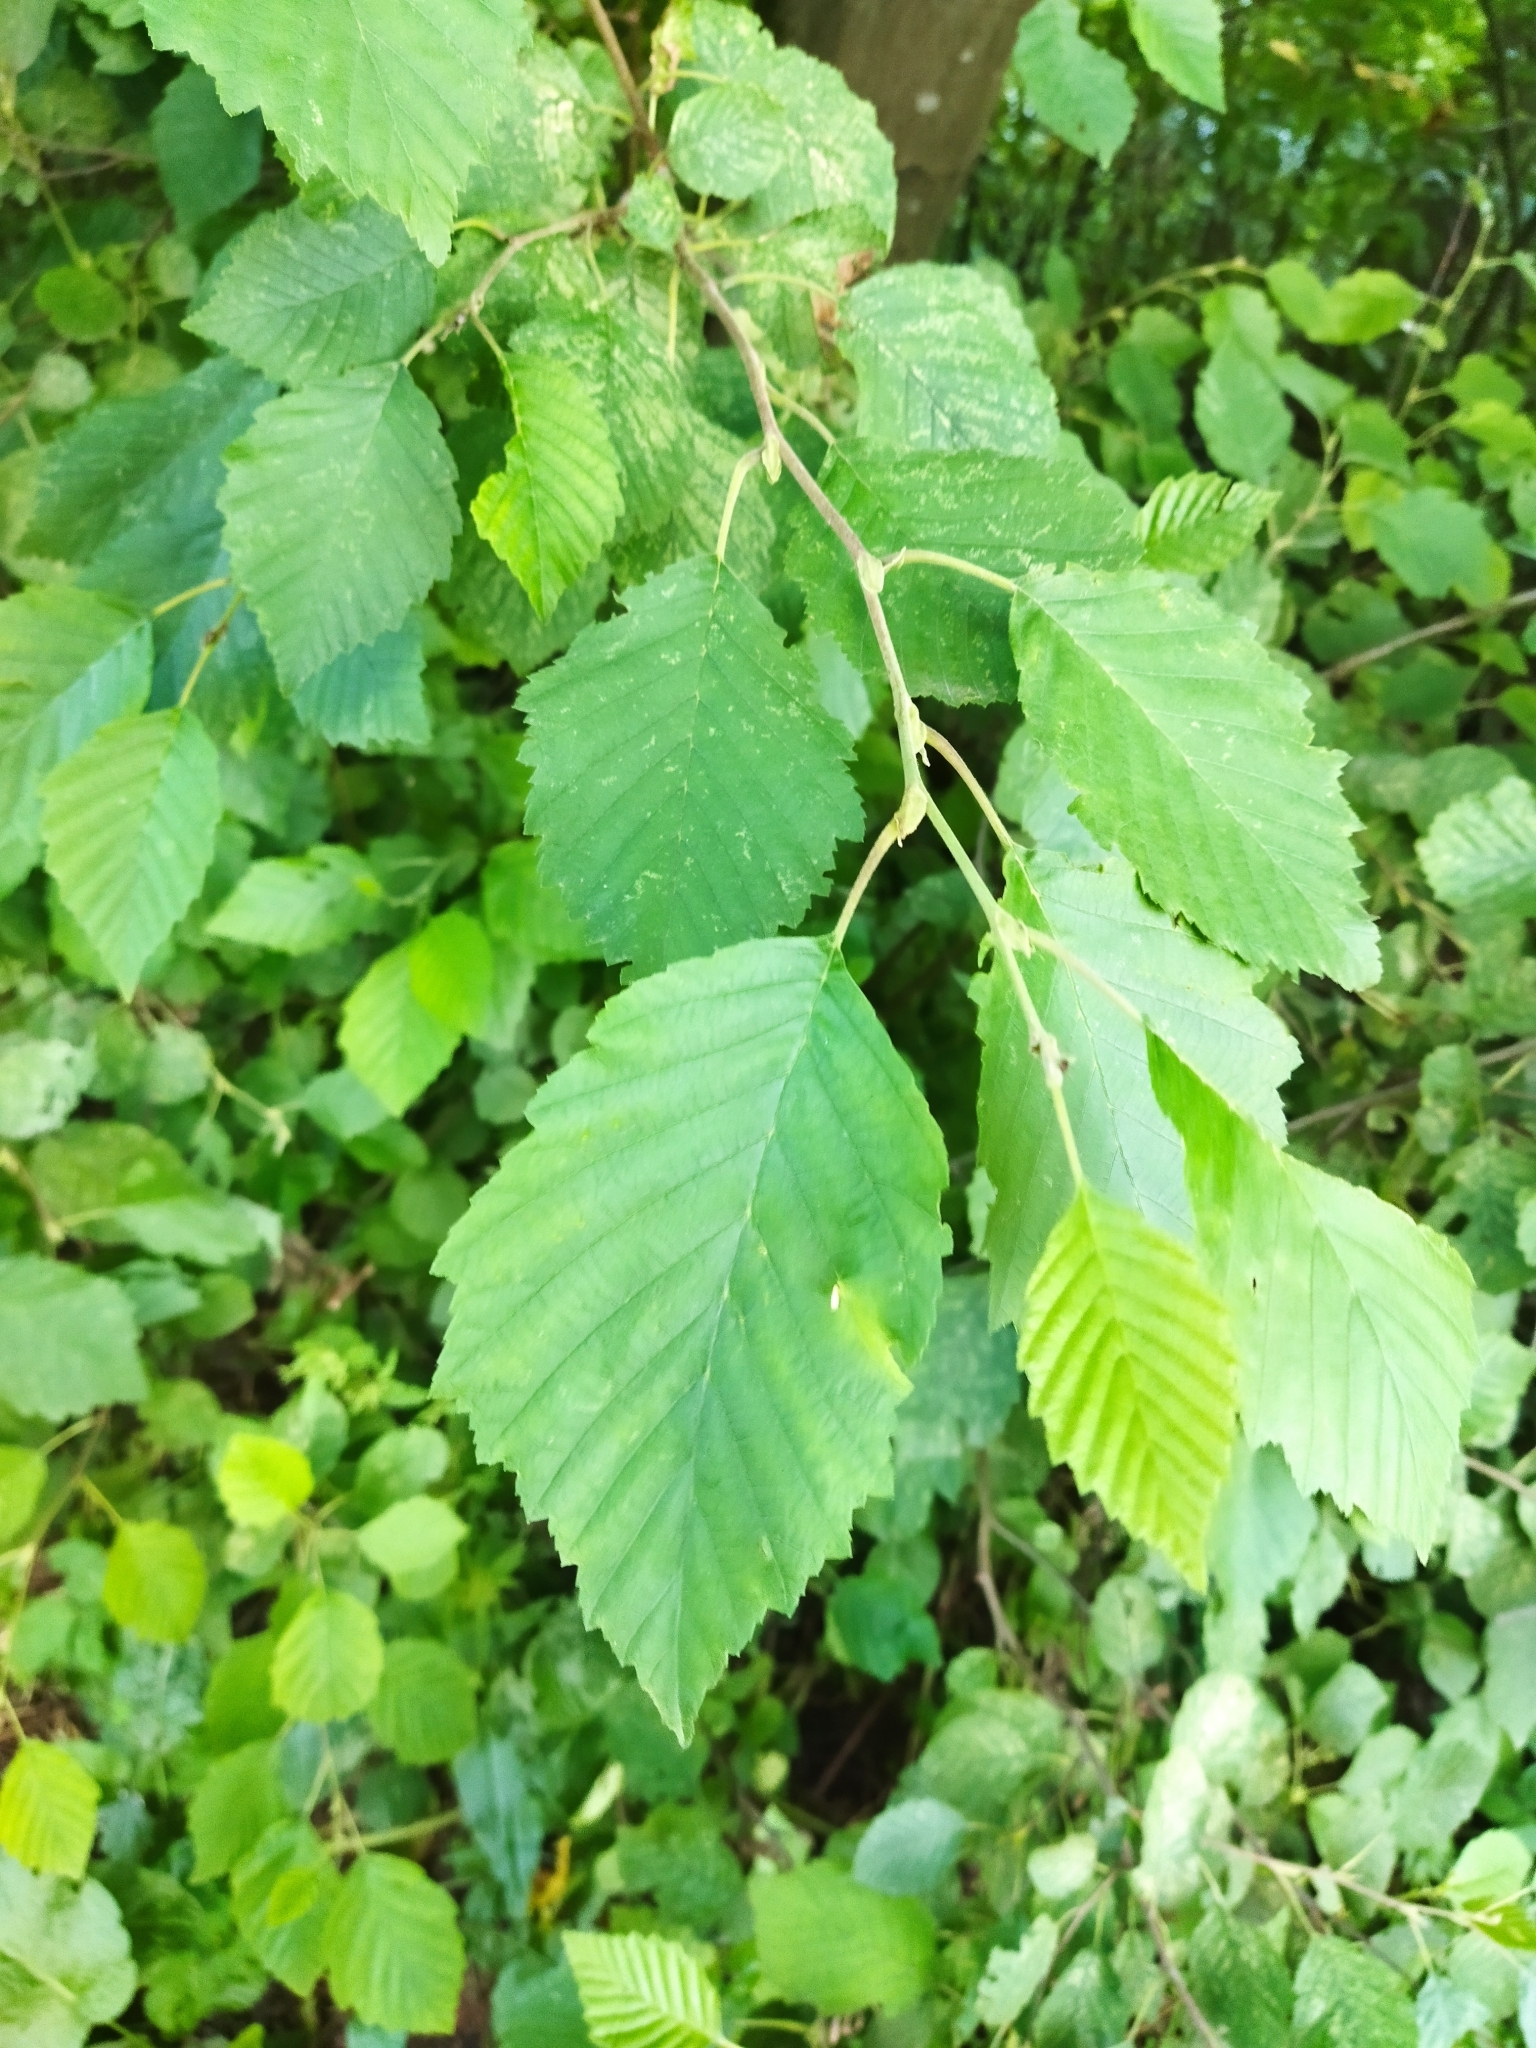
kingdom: Plantae
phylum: Tracheophyta
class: Magnoliopsida
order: Fagales
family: Betulaceae
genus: Alnus
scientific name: Alnus incana
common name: Grey alder
